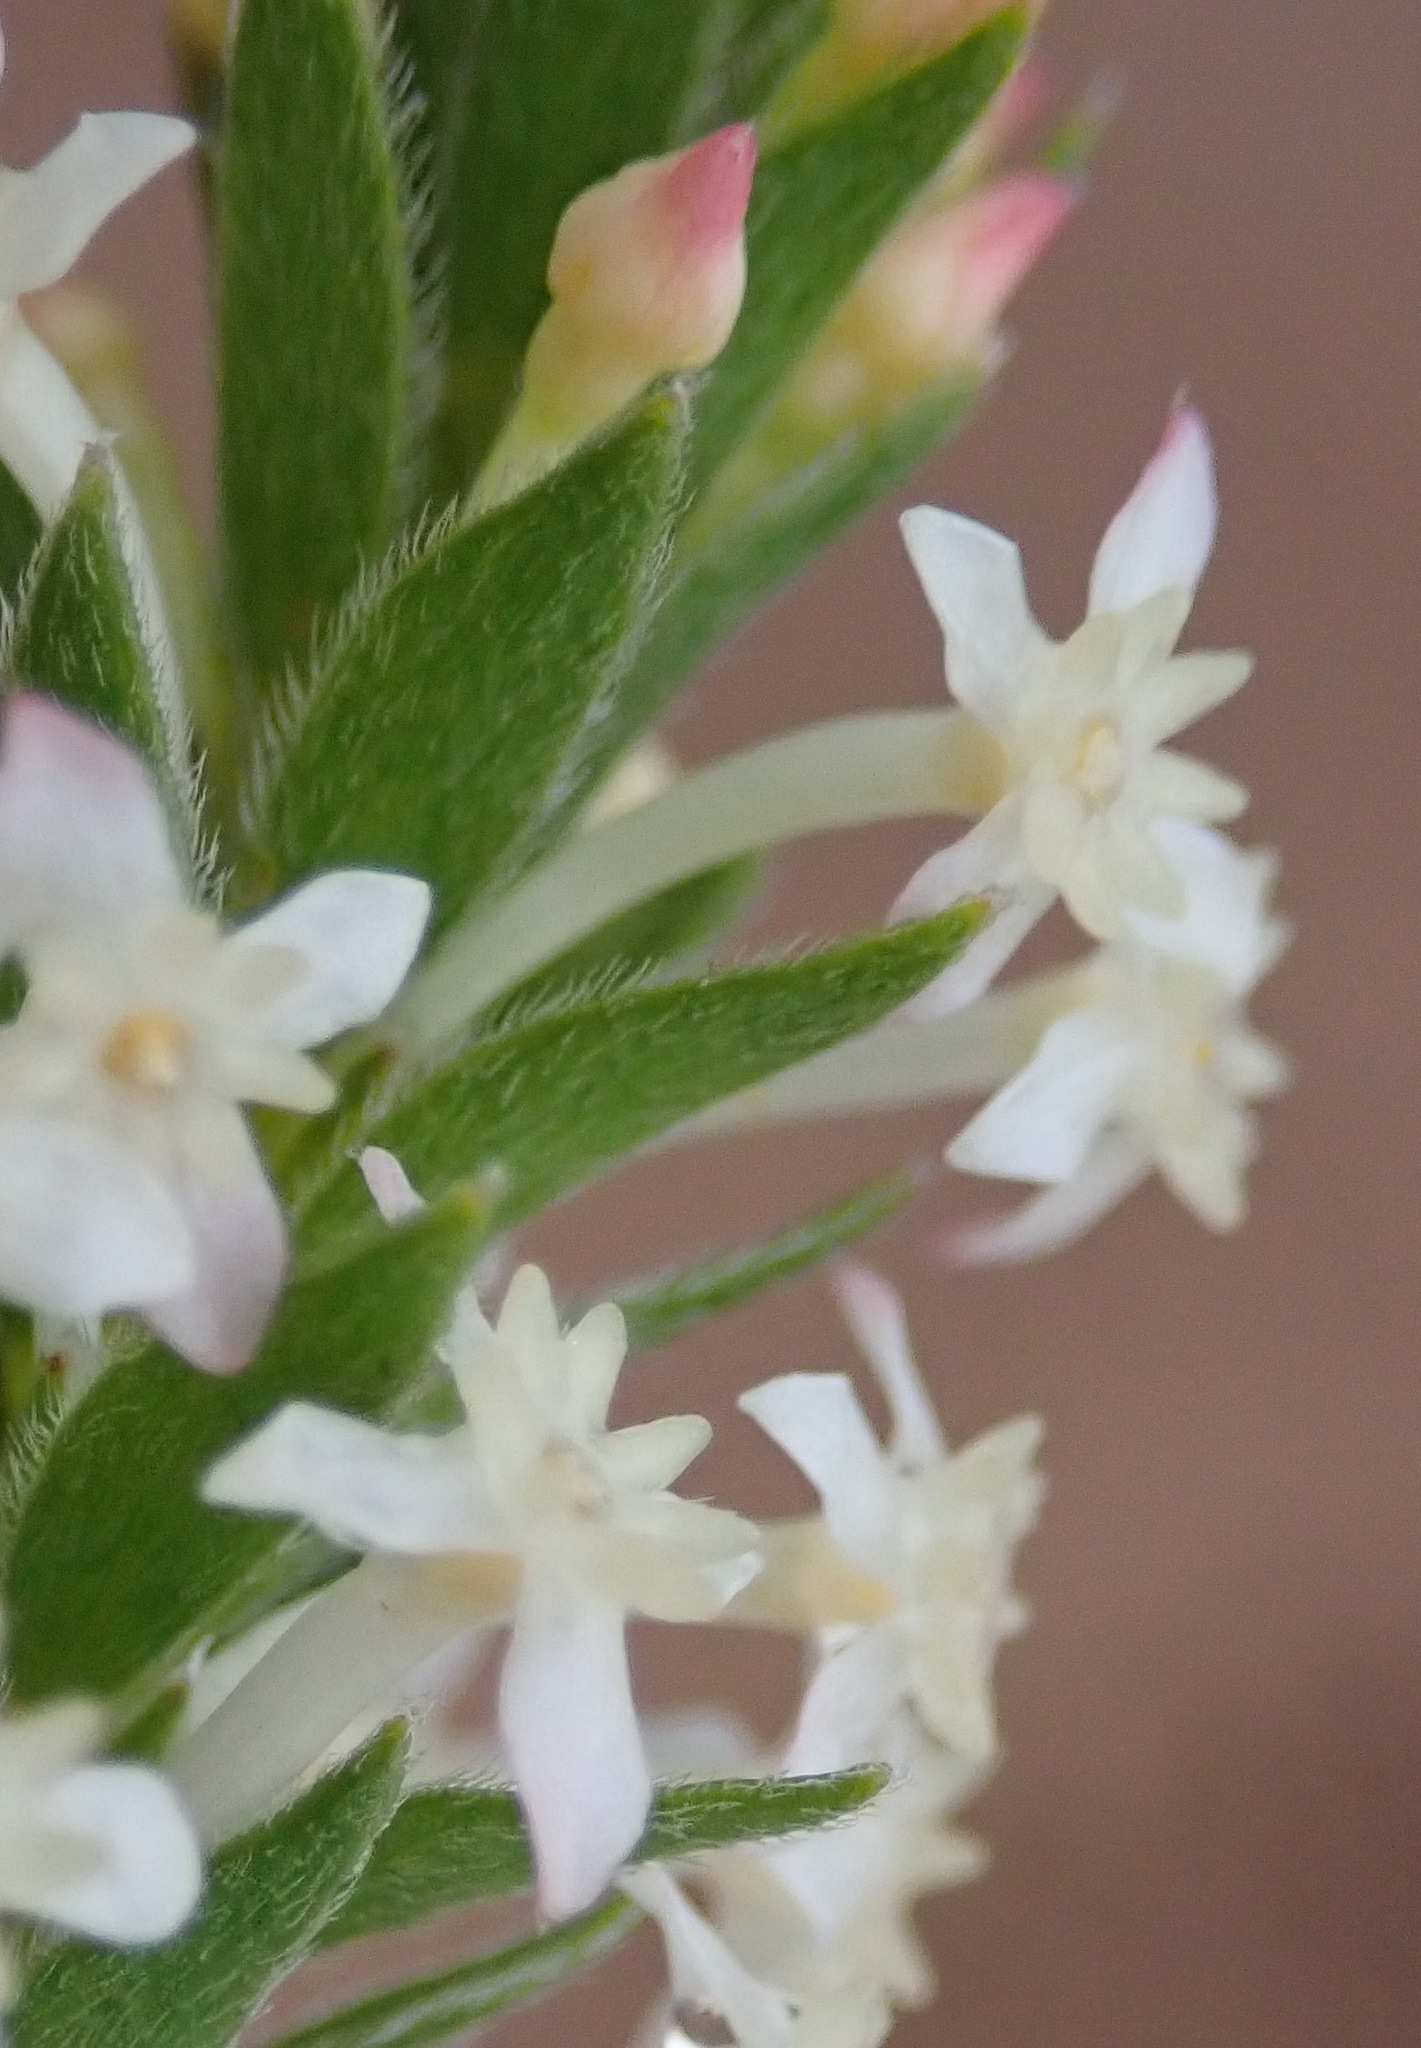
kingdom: Plantae
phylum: Tracheophyta
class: Magnoliopsida
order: Malvales
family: Thymelaeaceae
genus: Struthiola
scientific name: Struthiola hirsuta
